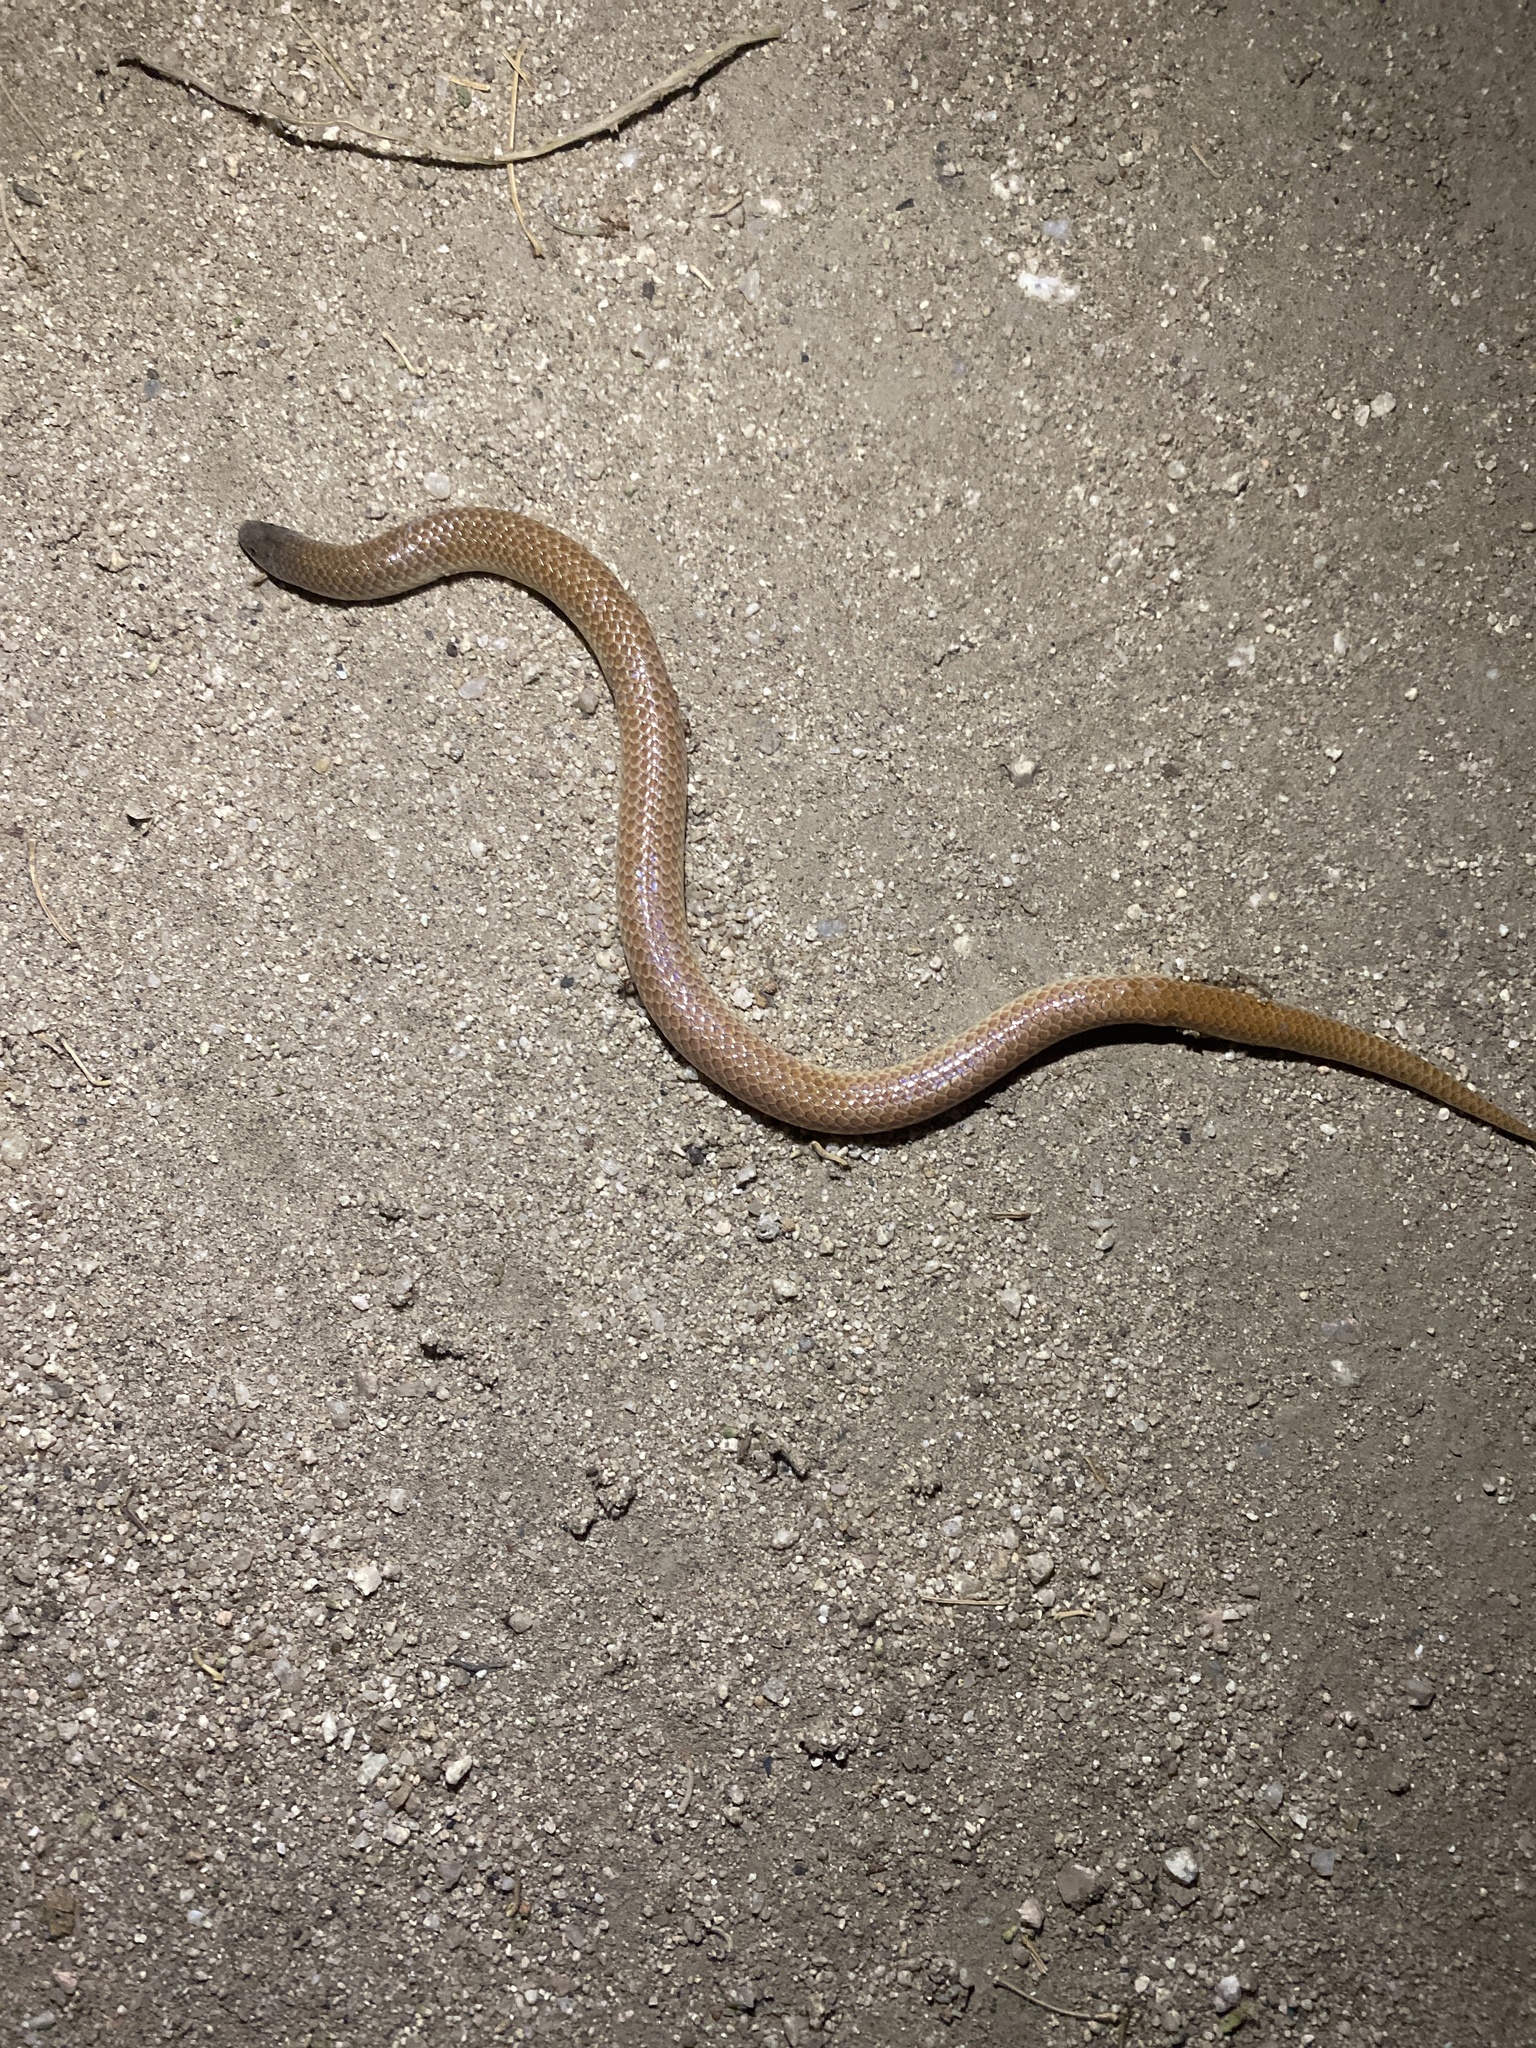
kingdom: Animalia
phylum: Chordata
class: Squamata
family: Colubridae
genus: Sonora
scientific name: Sonora straminea
